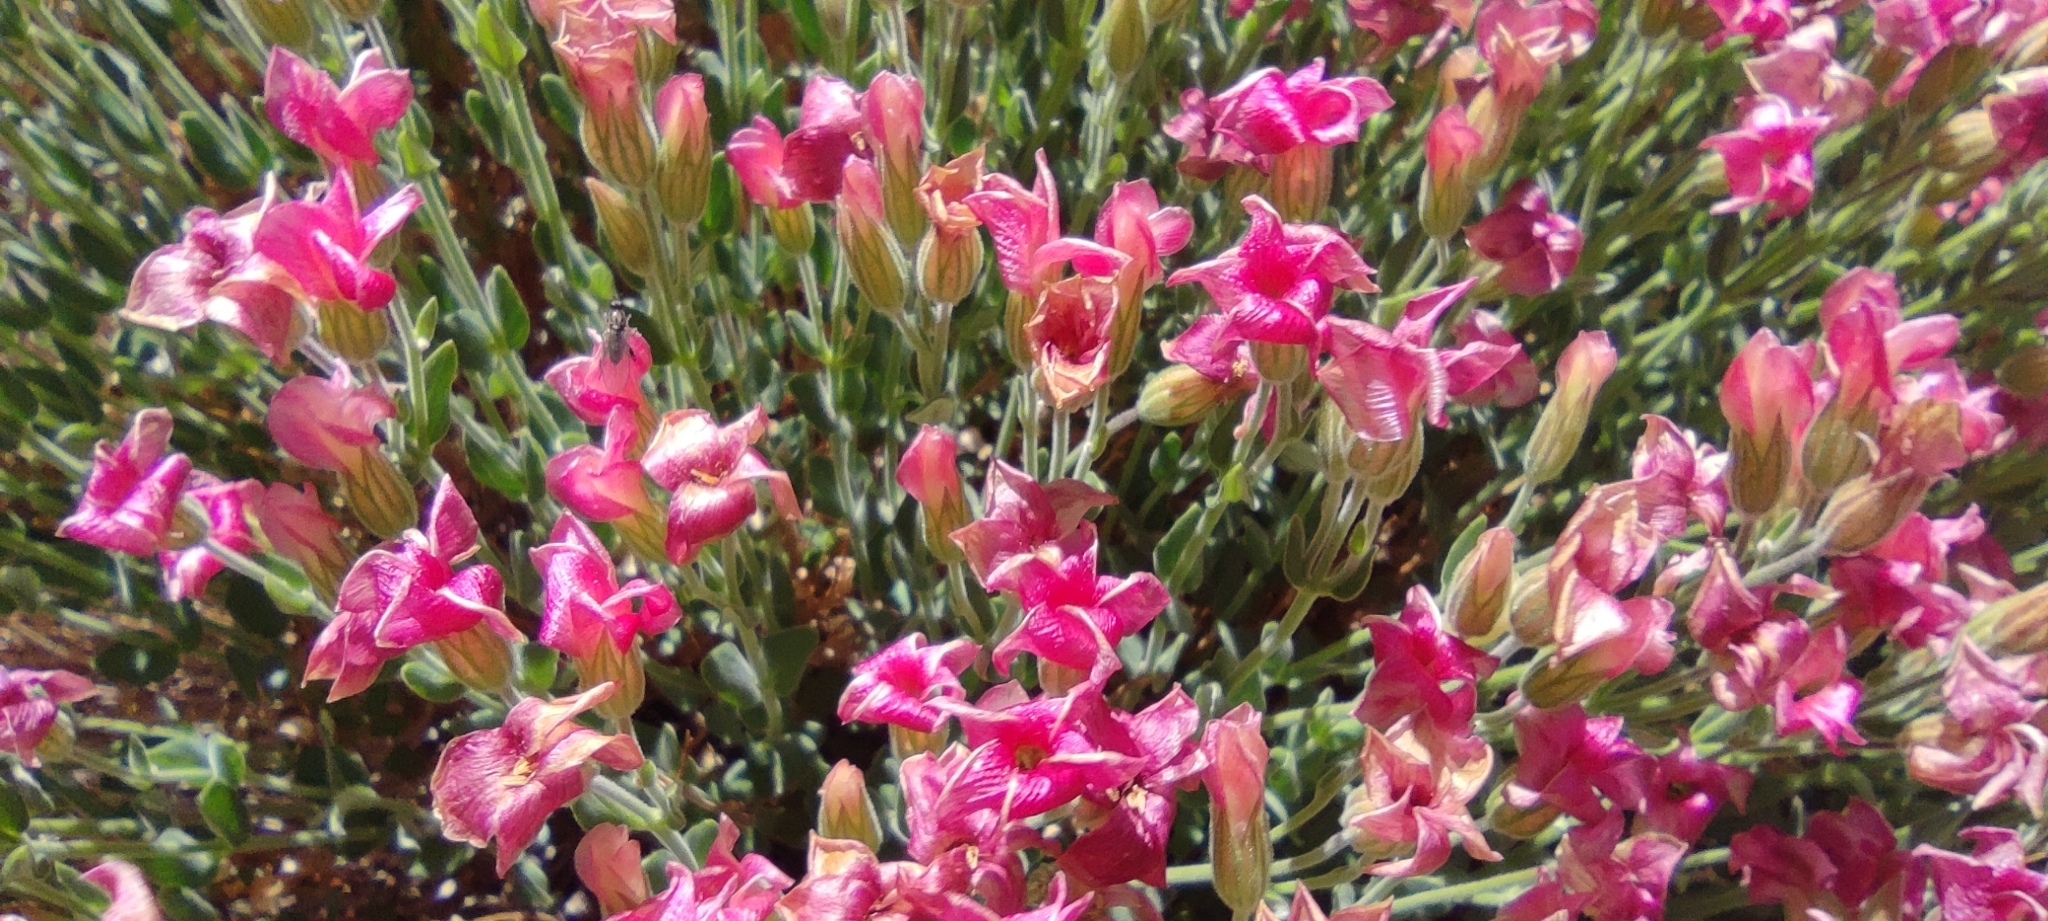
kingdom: Plantae
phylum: Tracheophyta
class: Magnoliopsida
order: Geraniales
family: Vivianiaceae
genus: Viviania
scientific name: Viviania marifolia
